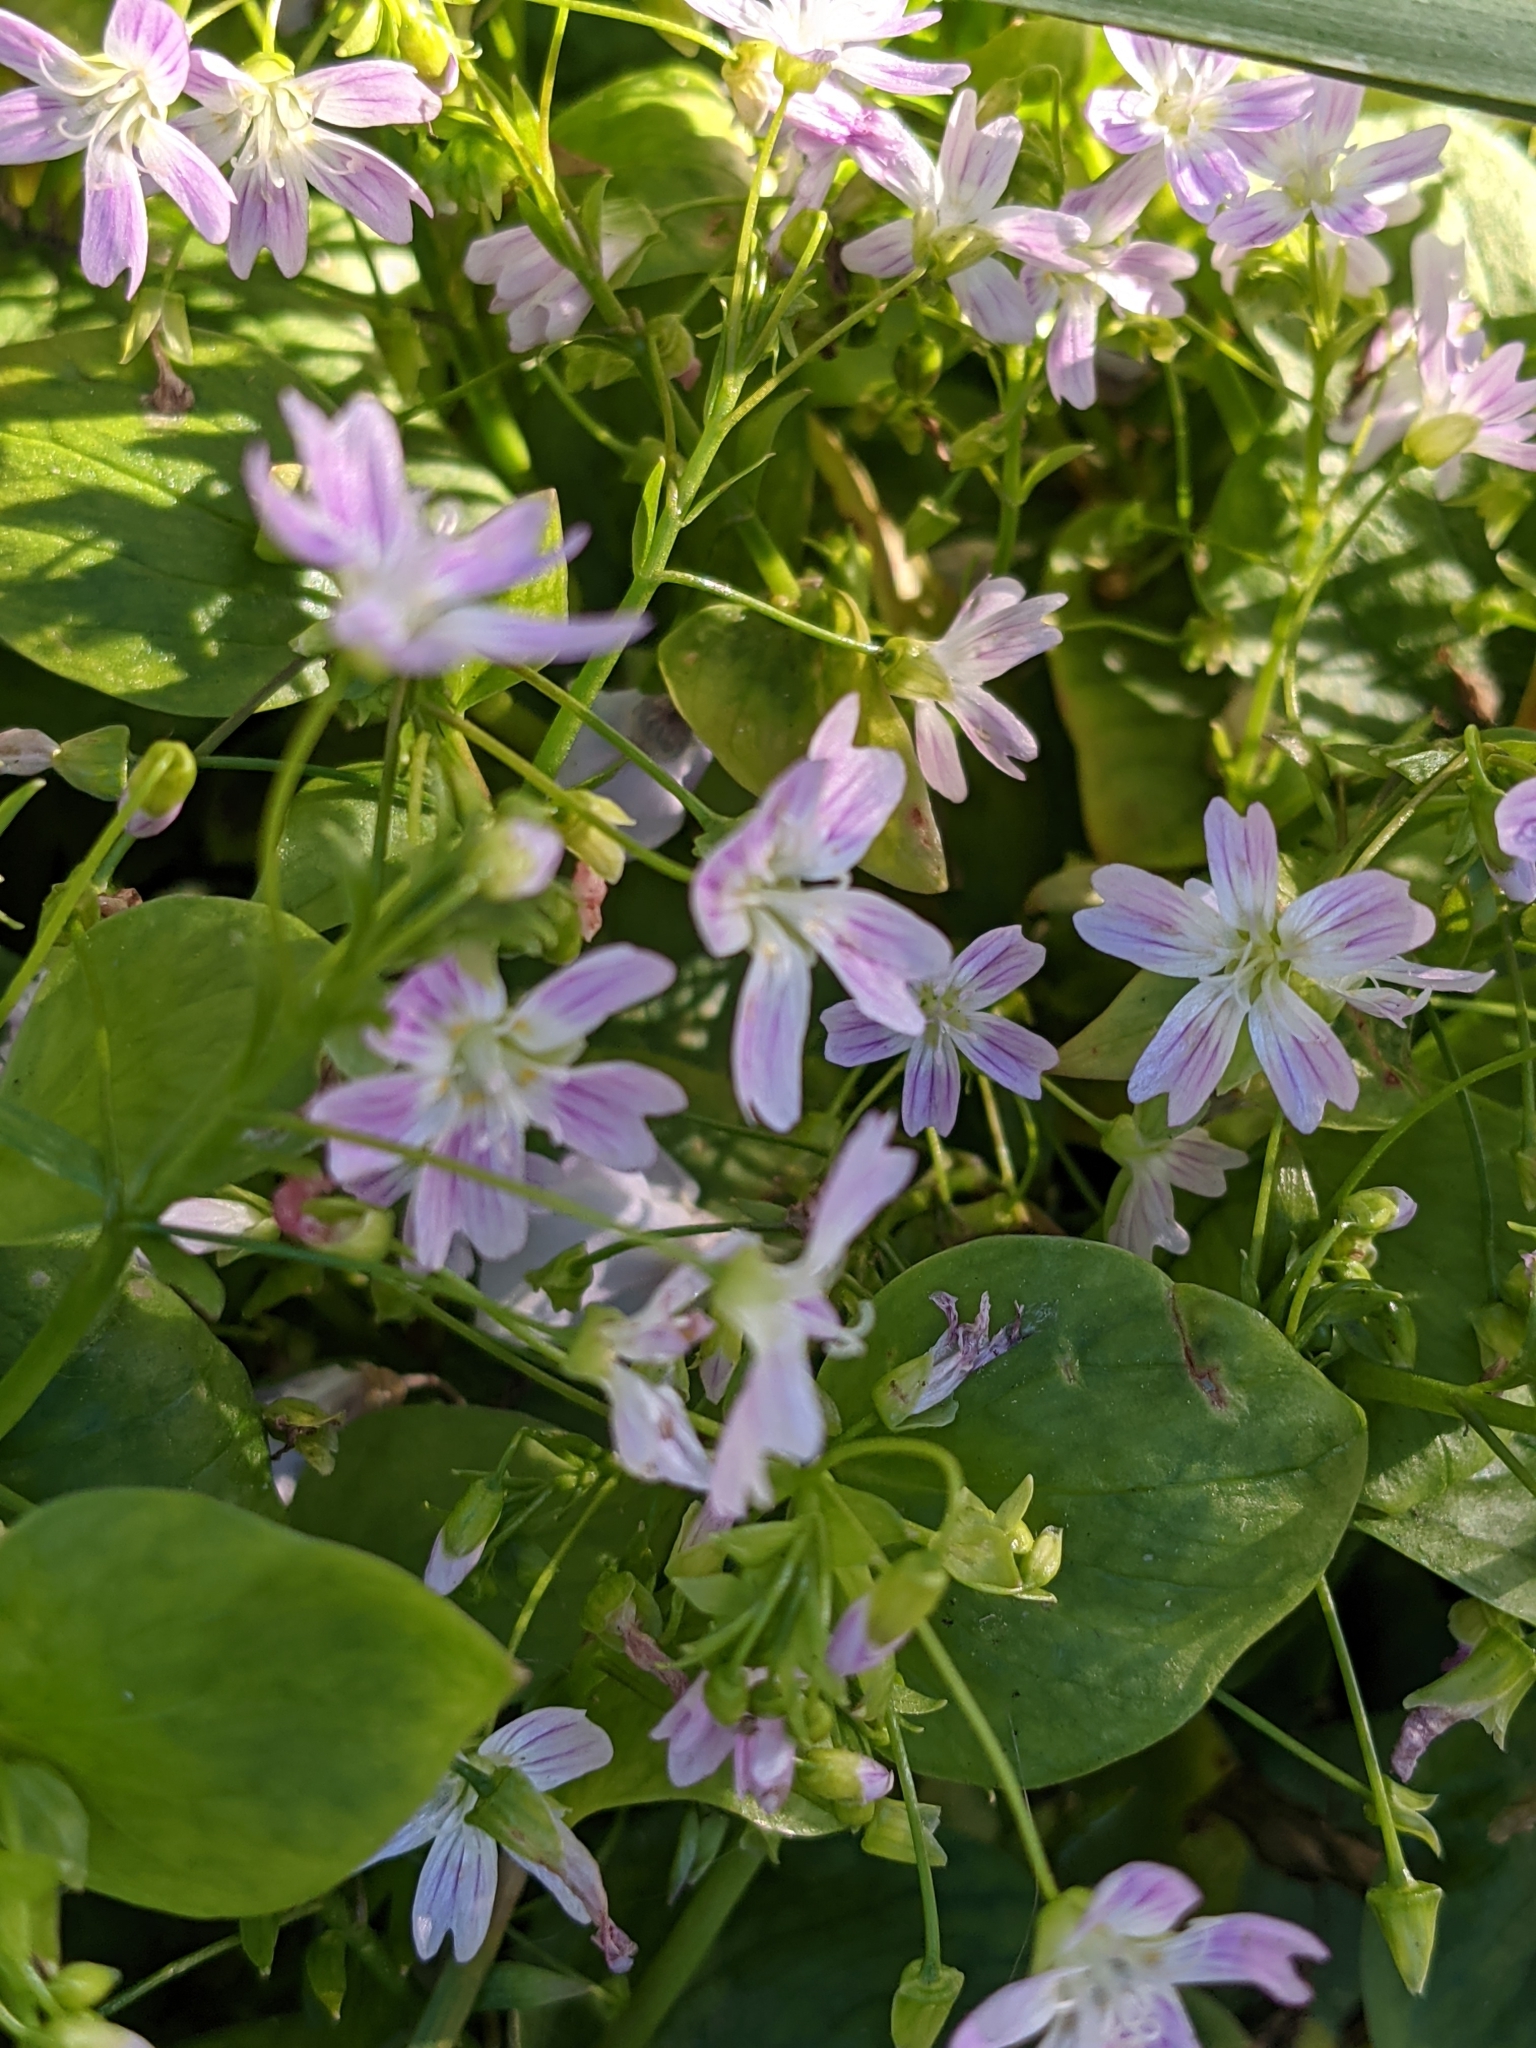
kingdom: Plantae
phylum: Tracheophyta
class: Magnoliopsida
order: Caryophyllales
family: Montiaceae
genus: Claytonia
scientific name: Claytonia sibirica
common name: Pink purslane
